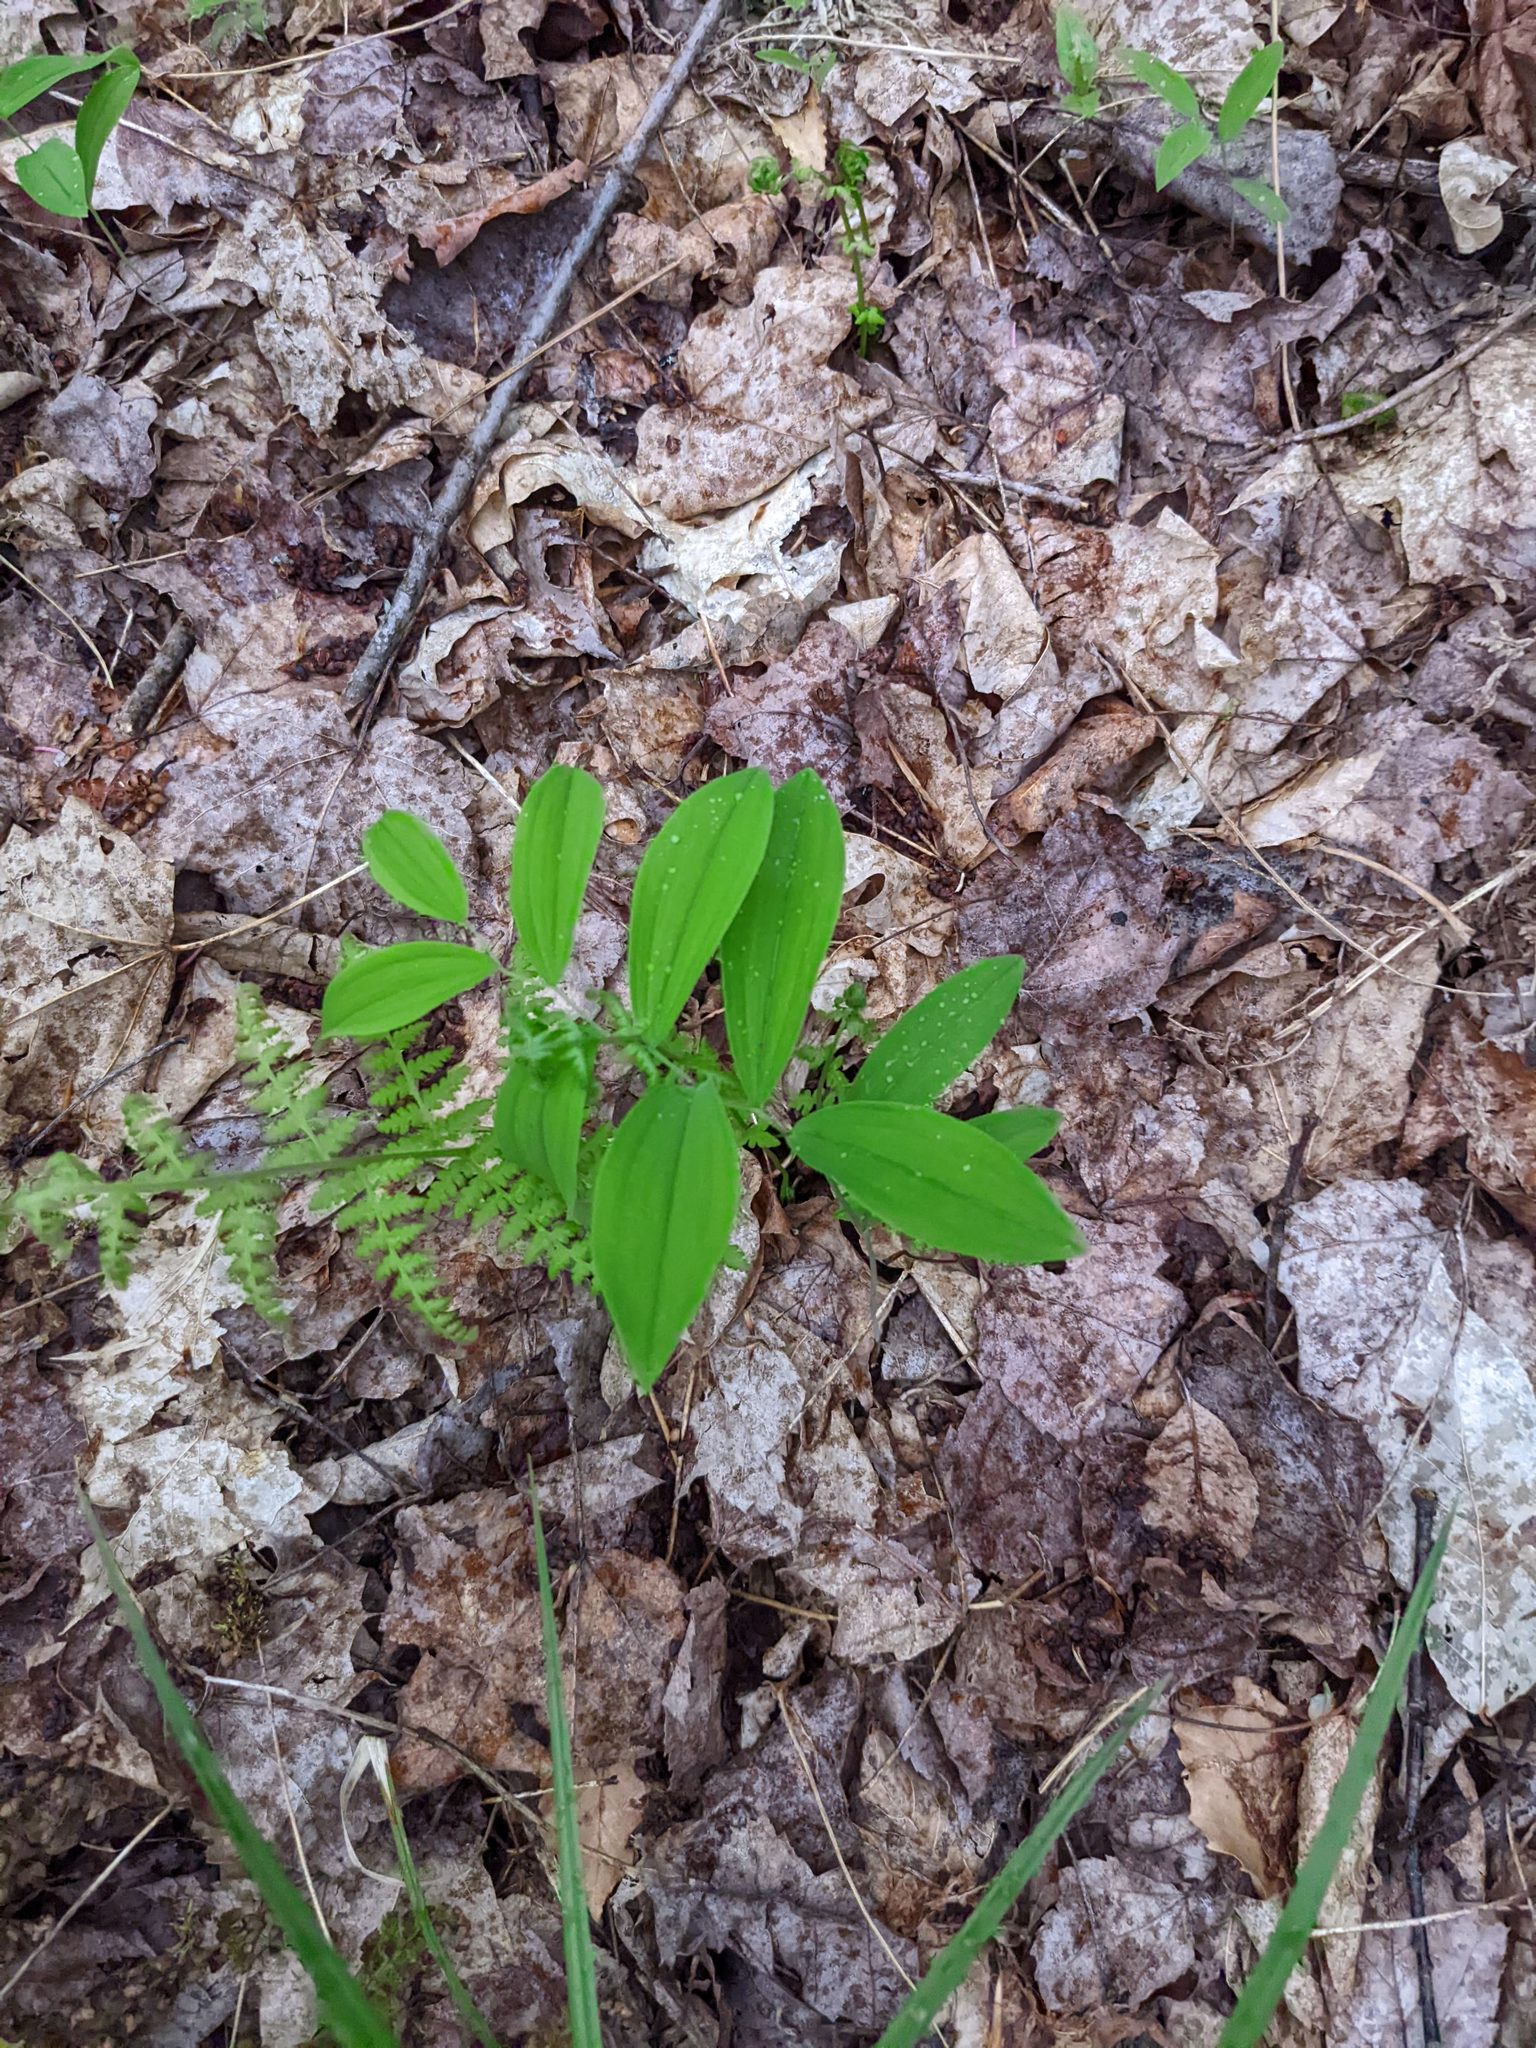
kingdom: Plantae
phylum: Tracheophyta
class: Liliopsida
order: Liliales
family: Colchicaceae
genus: Uvularia
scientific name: Uvularia sessilifolia
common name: Straw-lily
